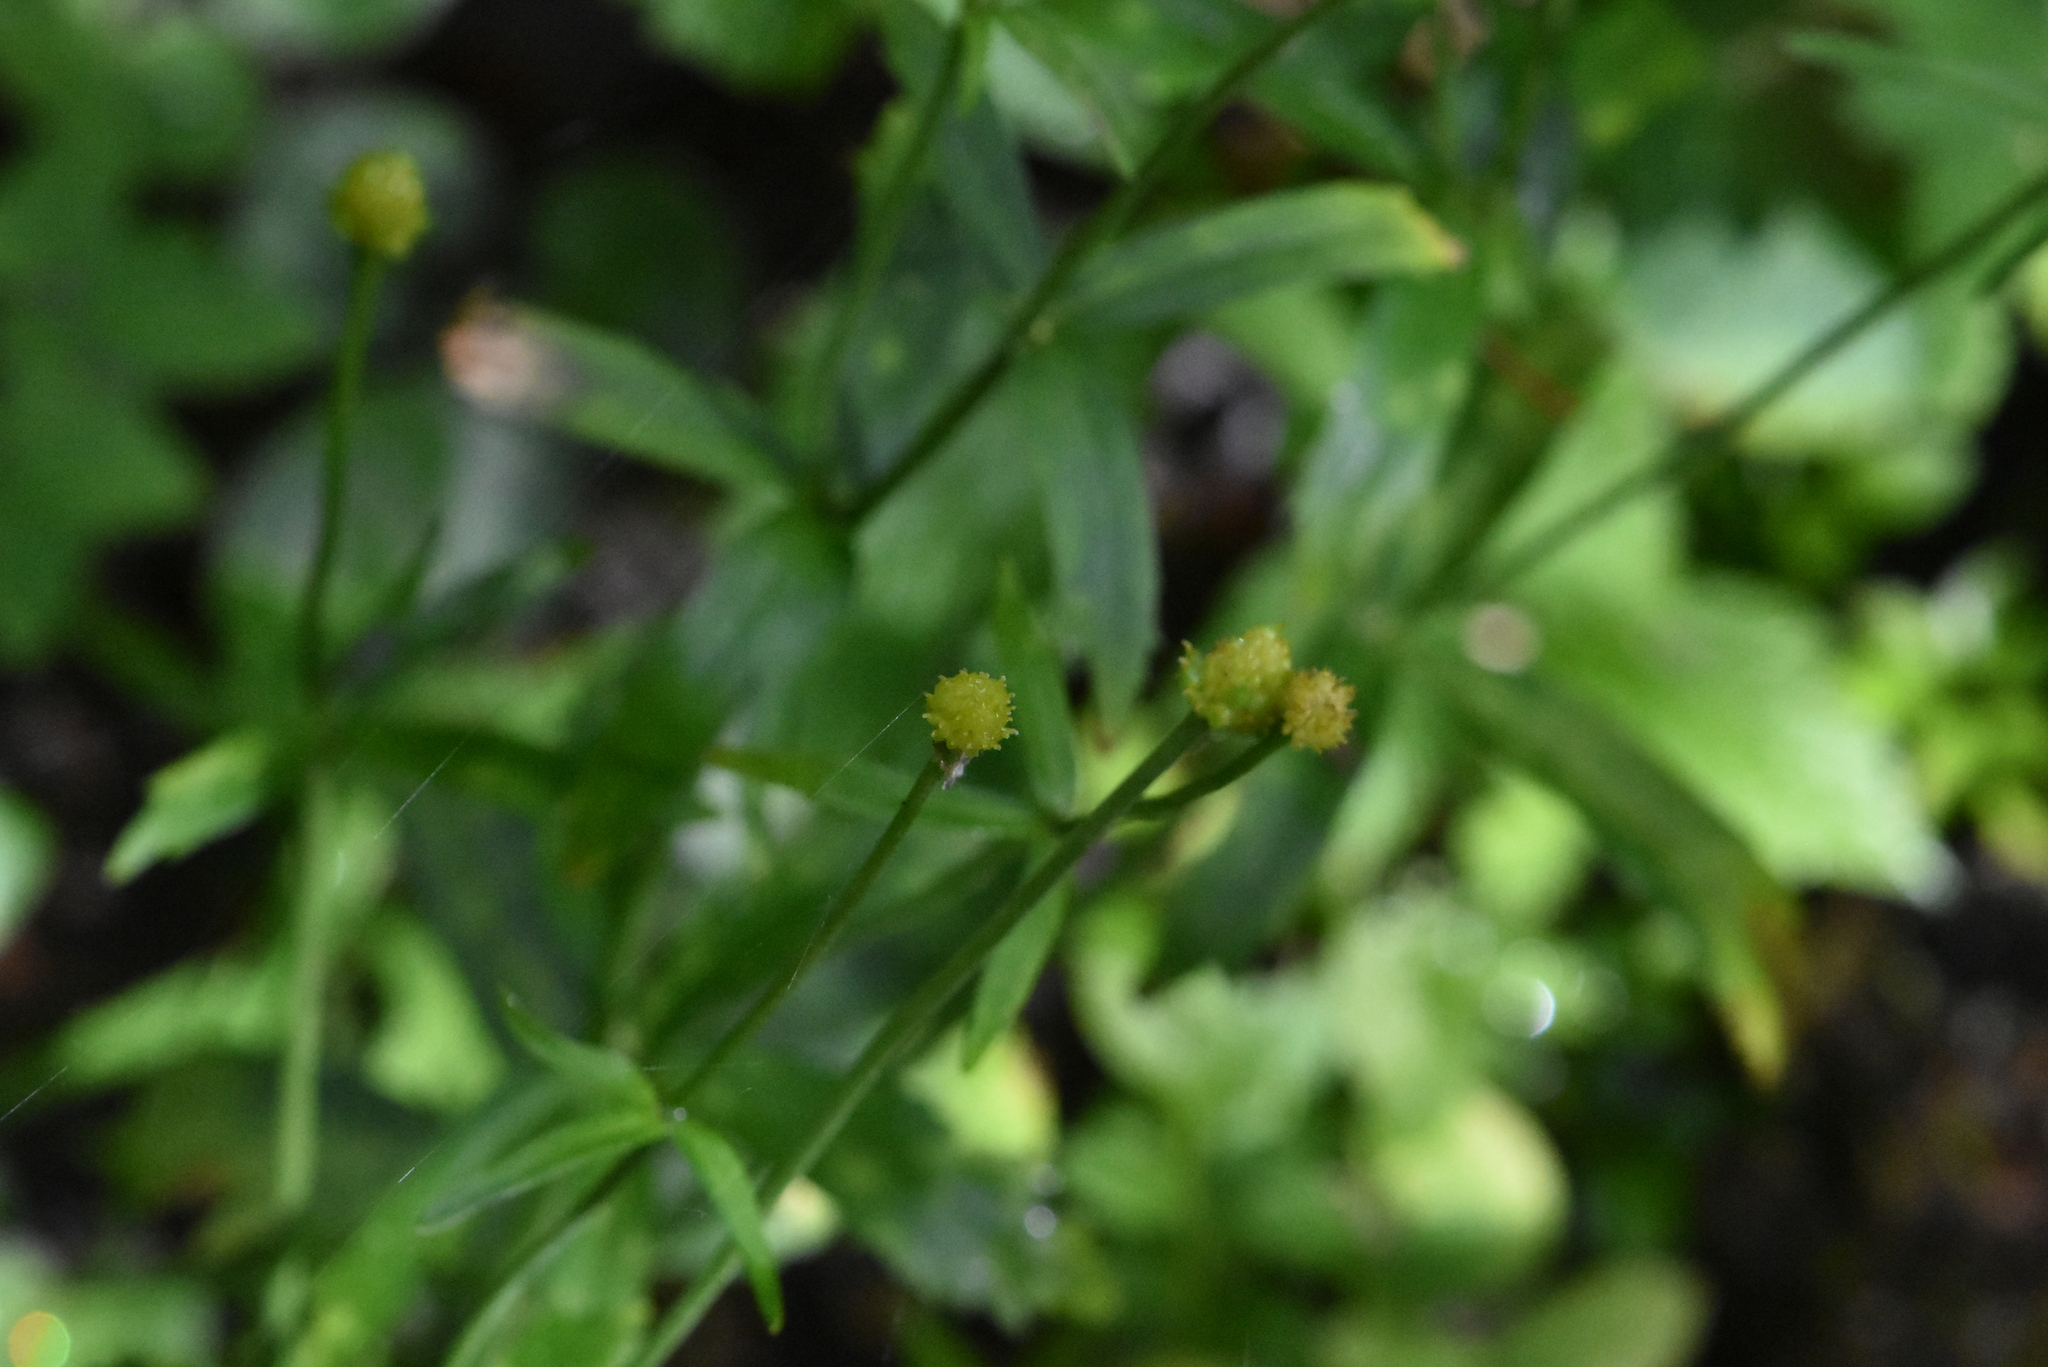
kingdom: Plantae
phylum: Tracheophyta
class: Magnoliopsida
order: Ranunculales
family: Ranunculaceae
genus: Ranunculus
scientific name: Ranunculus cassubicus
